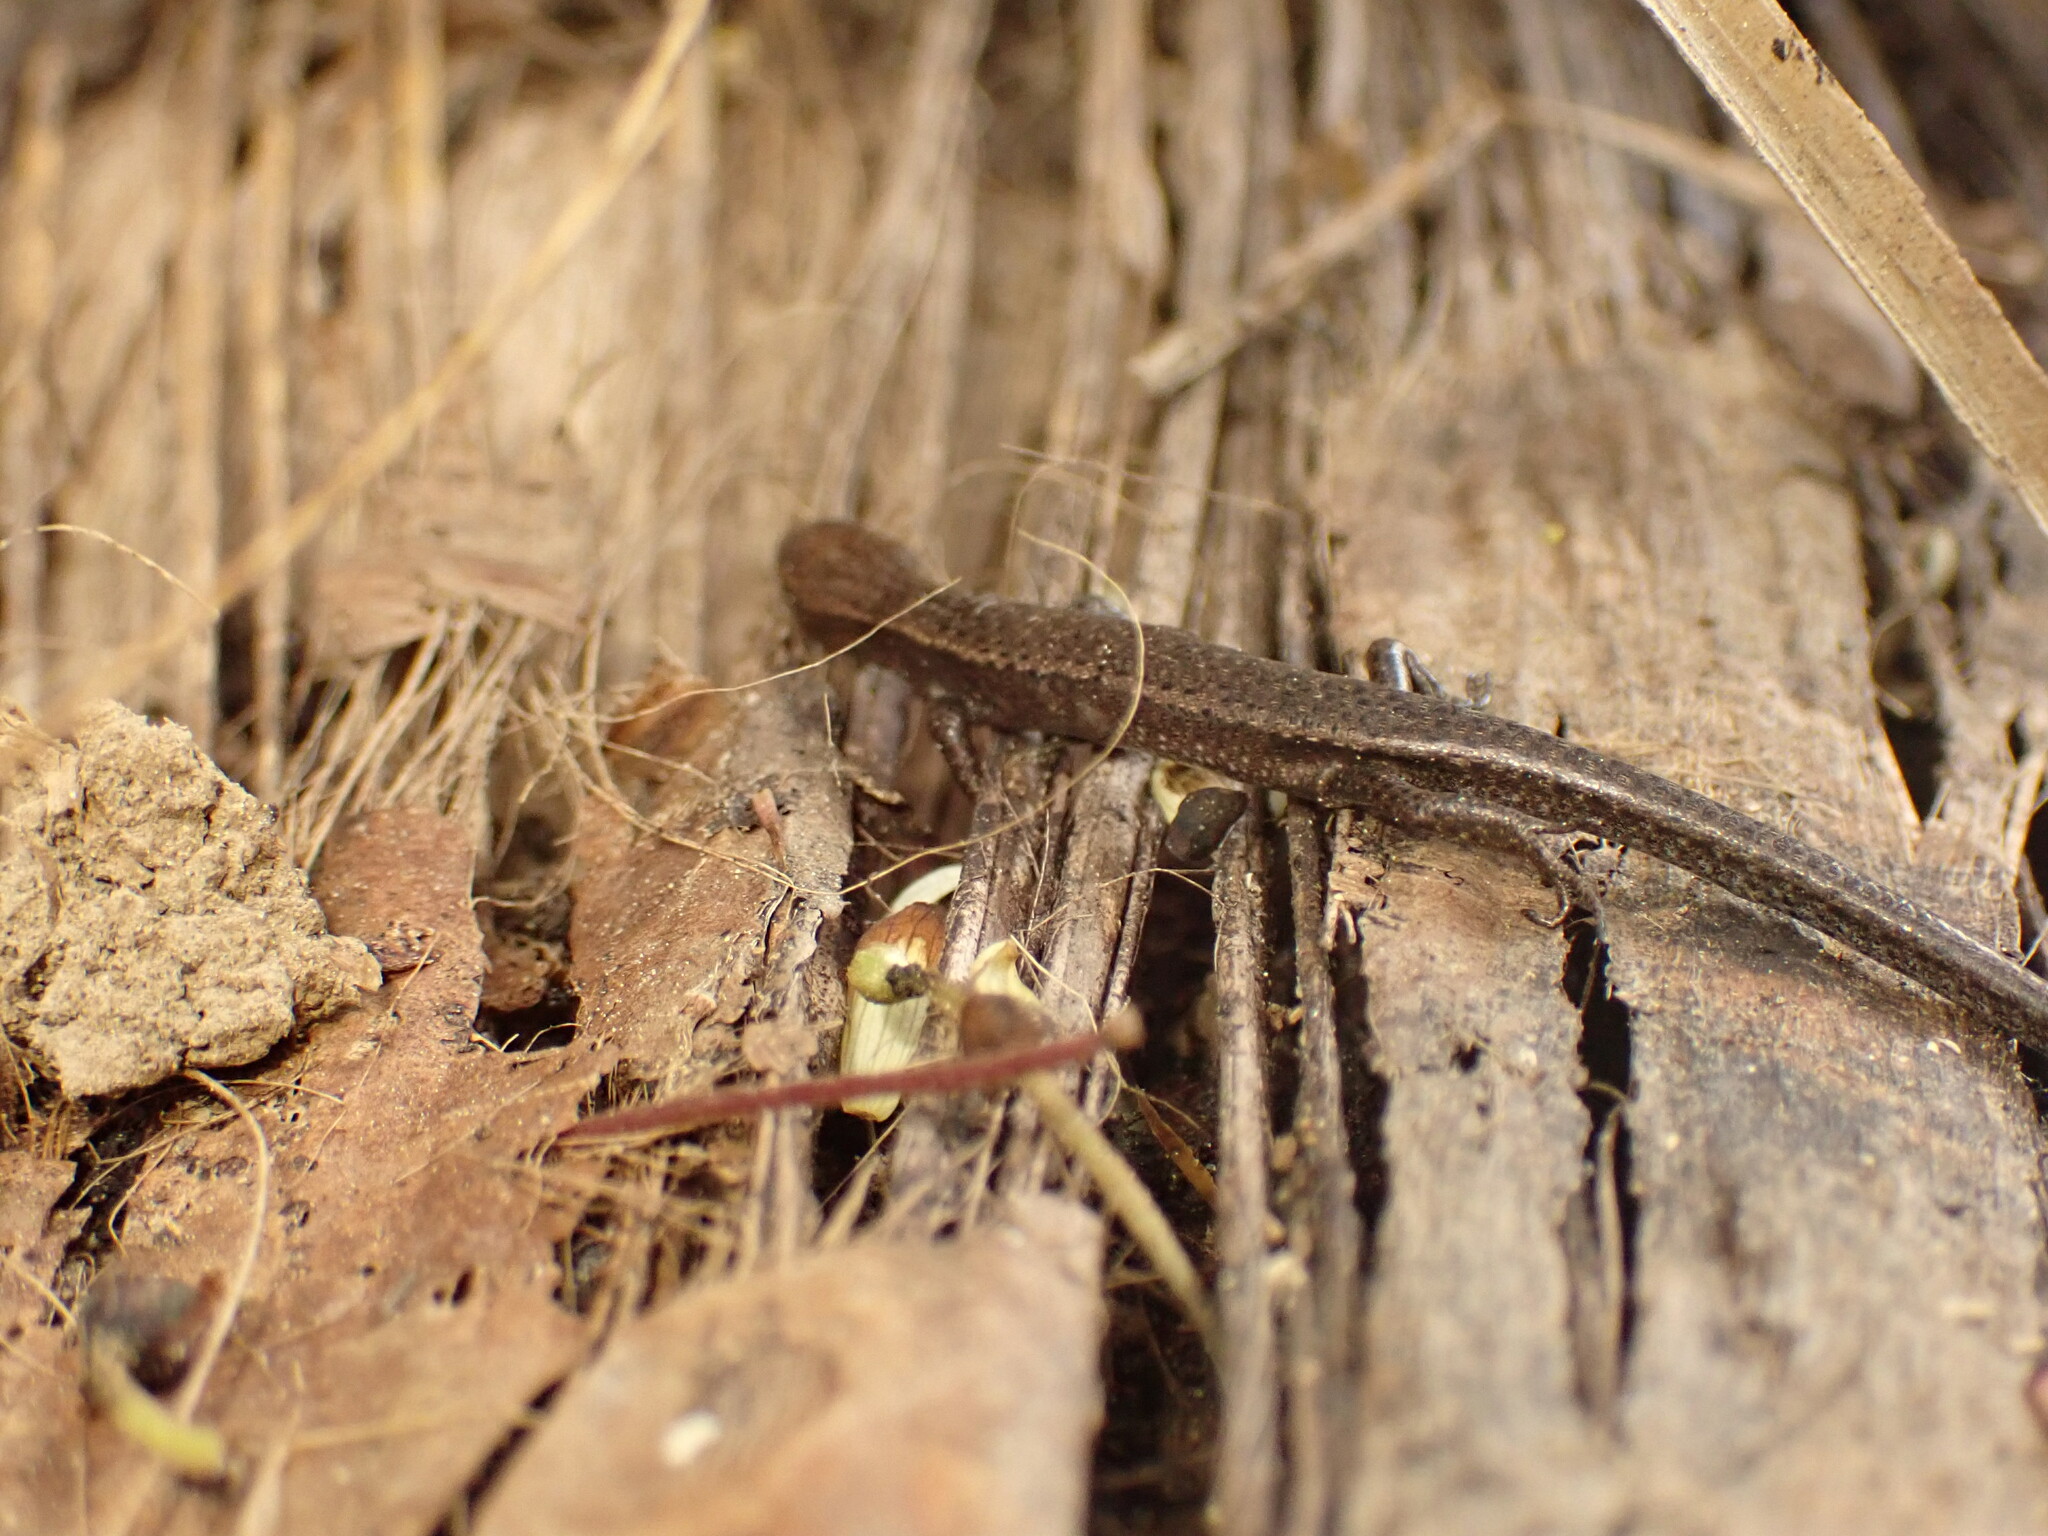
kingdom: Animalia
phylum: Chordata
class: Squamata
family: Scincidae
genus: Lampropholis
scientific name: Lampropholis delicata
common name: Plague skink
